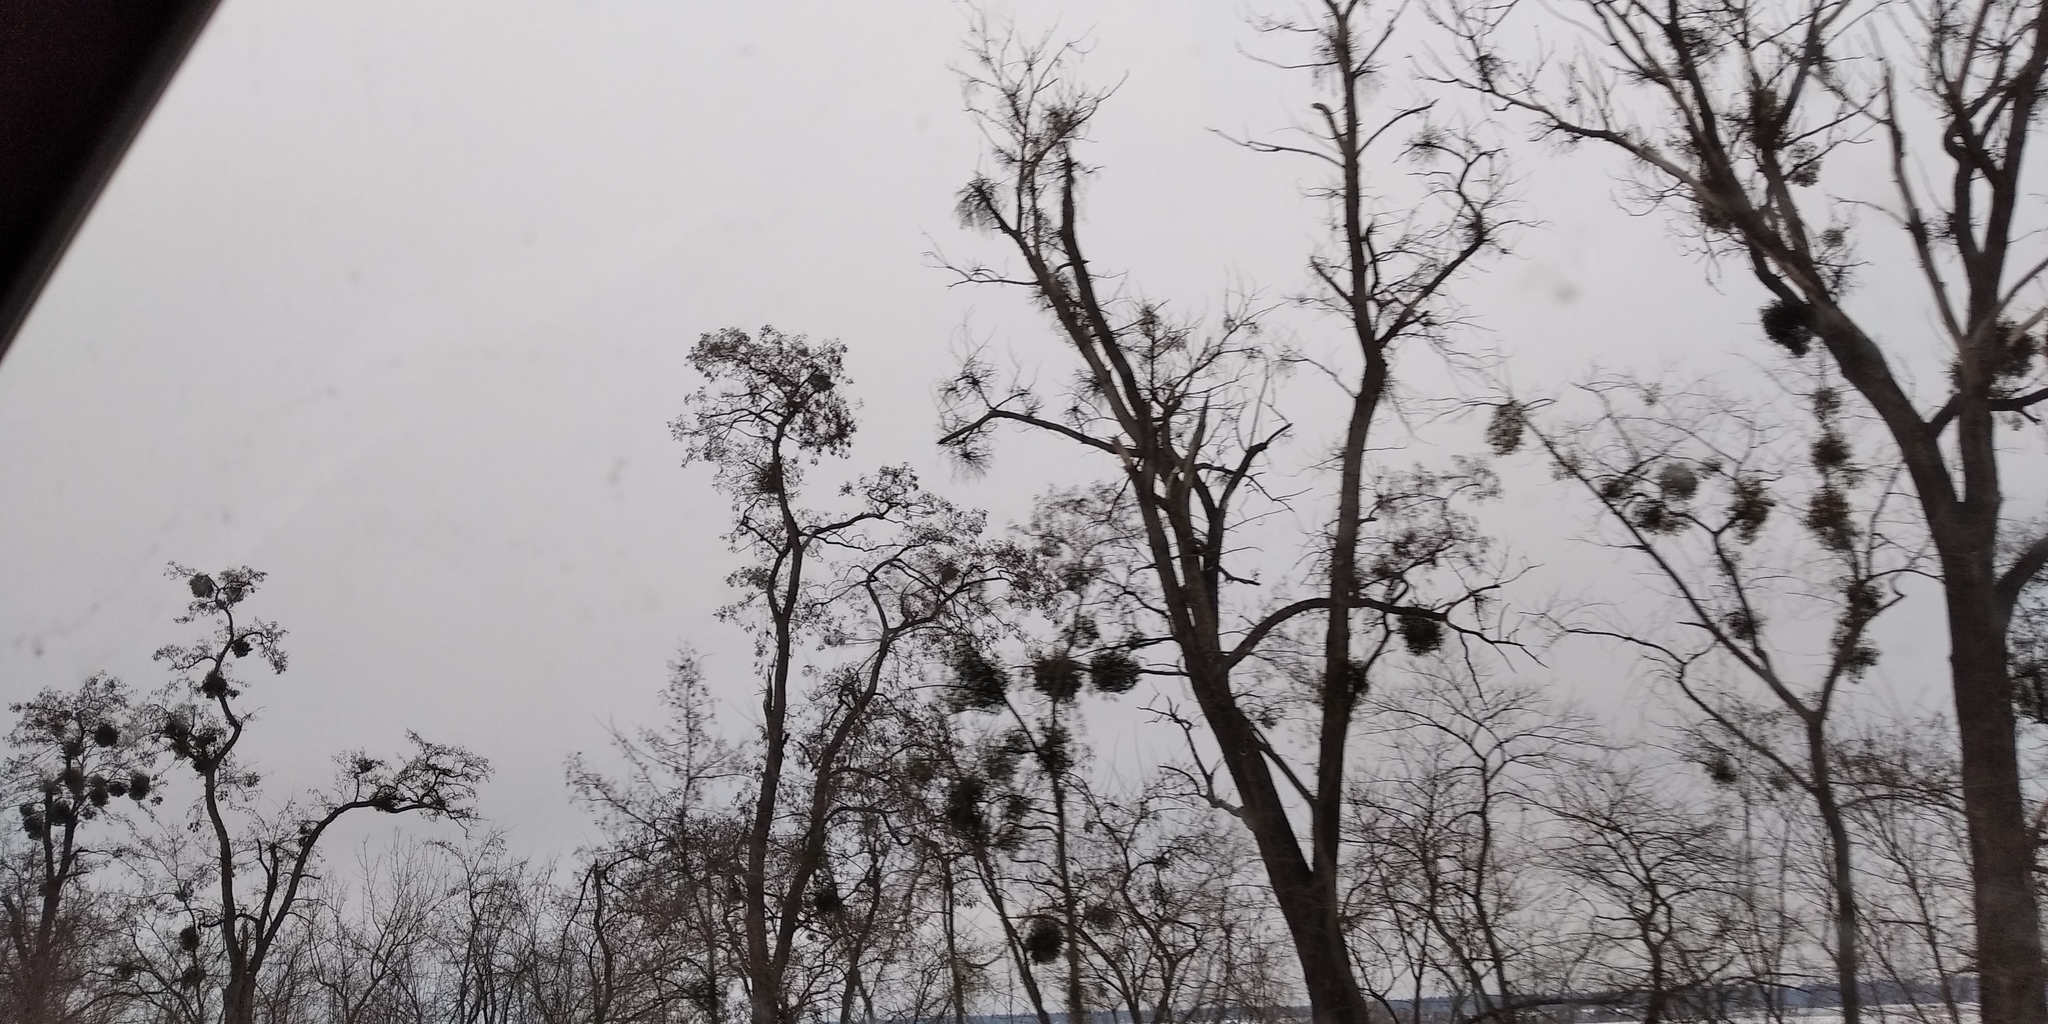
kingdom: Plantae
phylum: Tracheophyta
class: Magnoliopsida
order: Santalales
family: Viscaceae
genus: Viscum
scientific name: Viscum album
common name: Mistletoe
